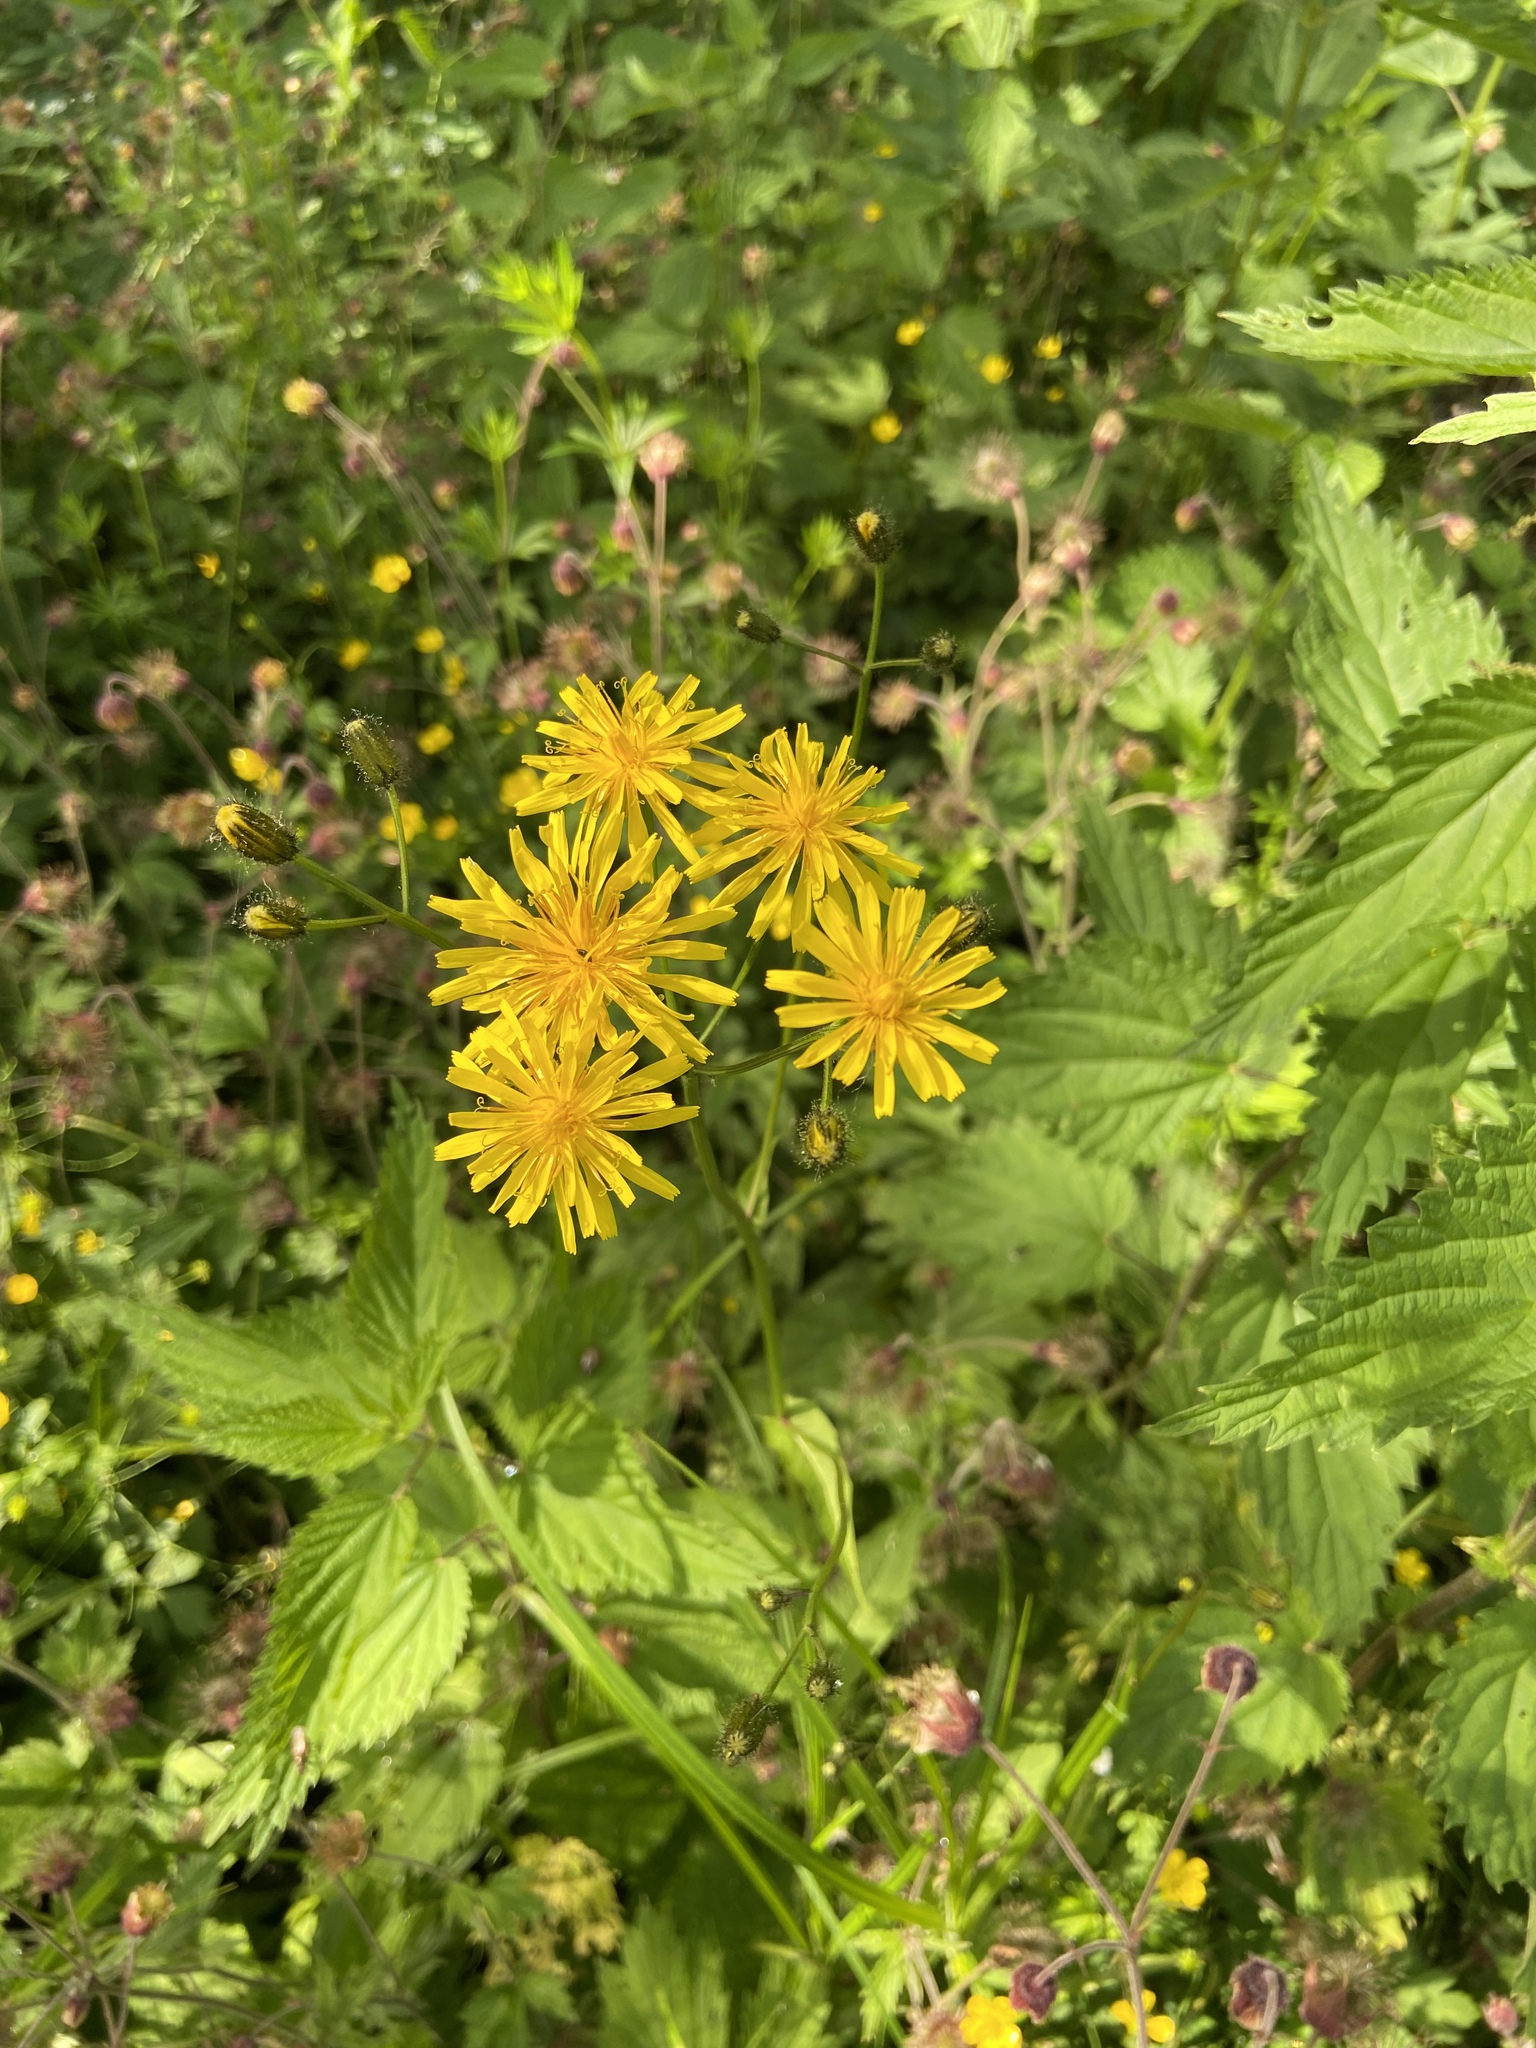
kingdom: Plantae
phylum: Tracheophyta
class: Magnoliopsida
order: Asterales
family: Asteraceae
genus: Crepis
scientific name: Crepis paludosa
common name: Marsh hawk's-beard
